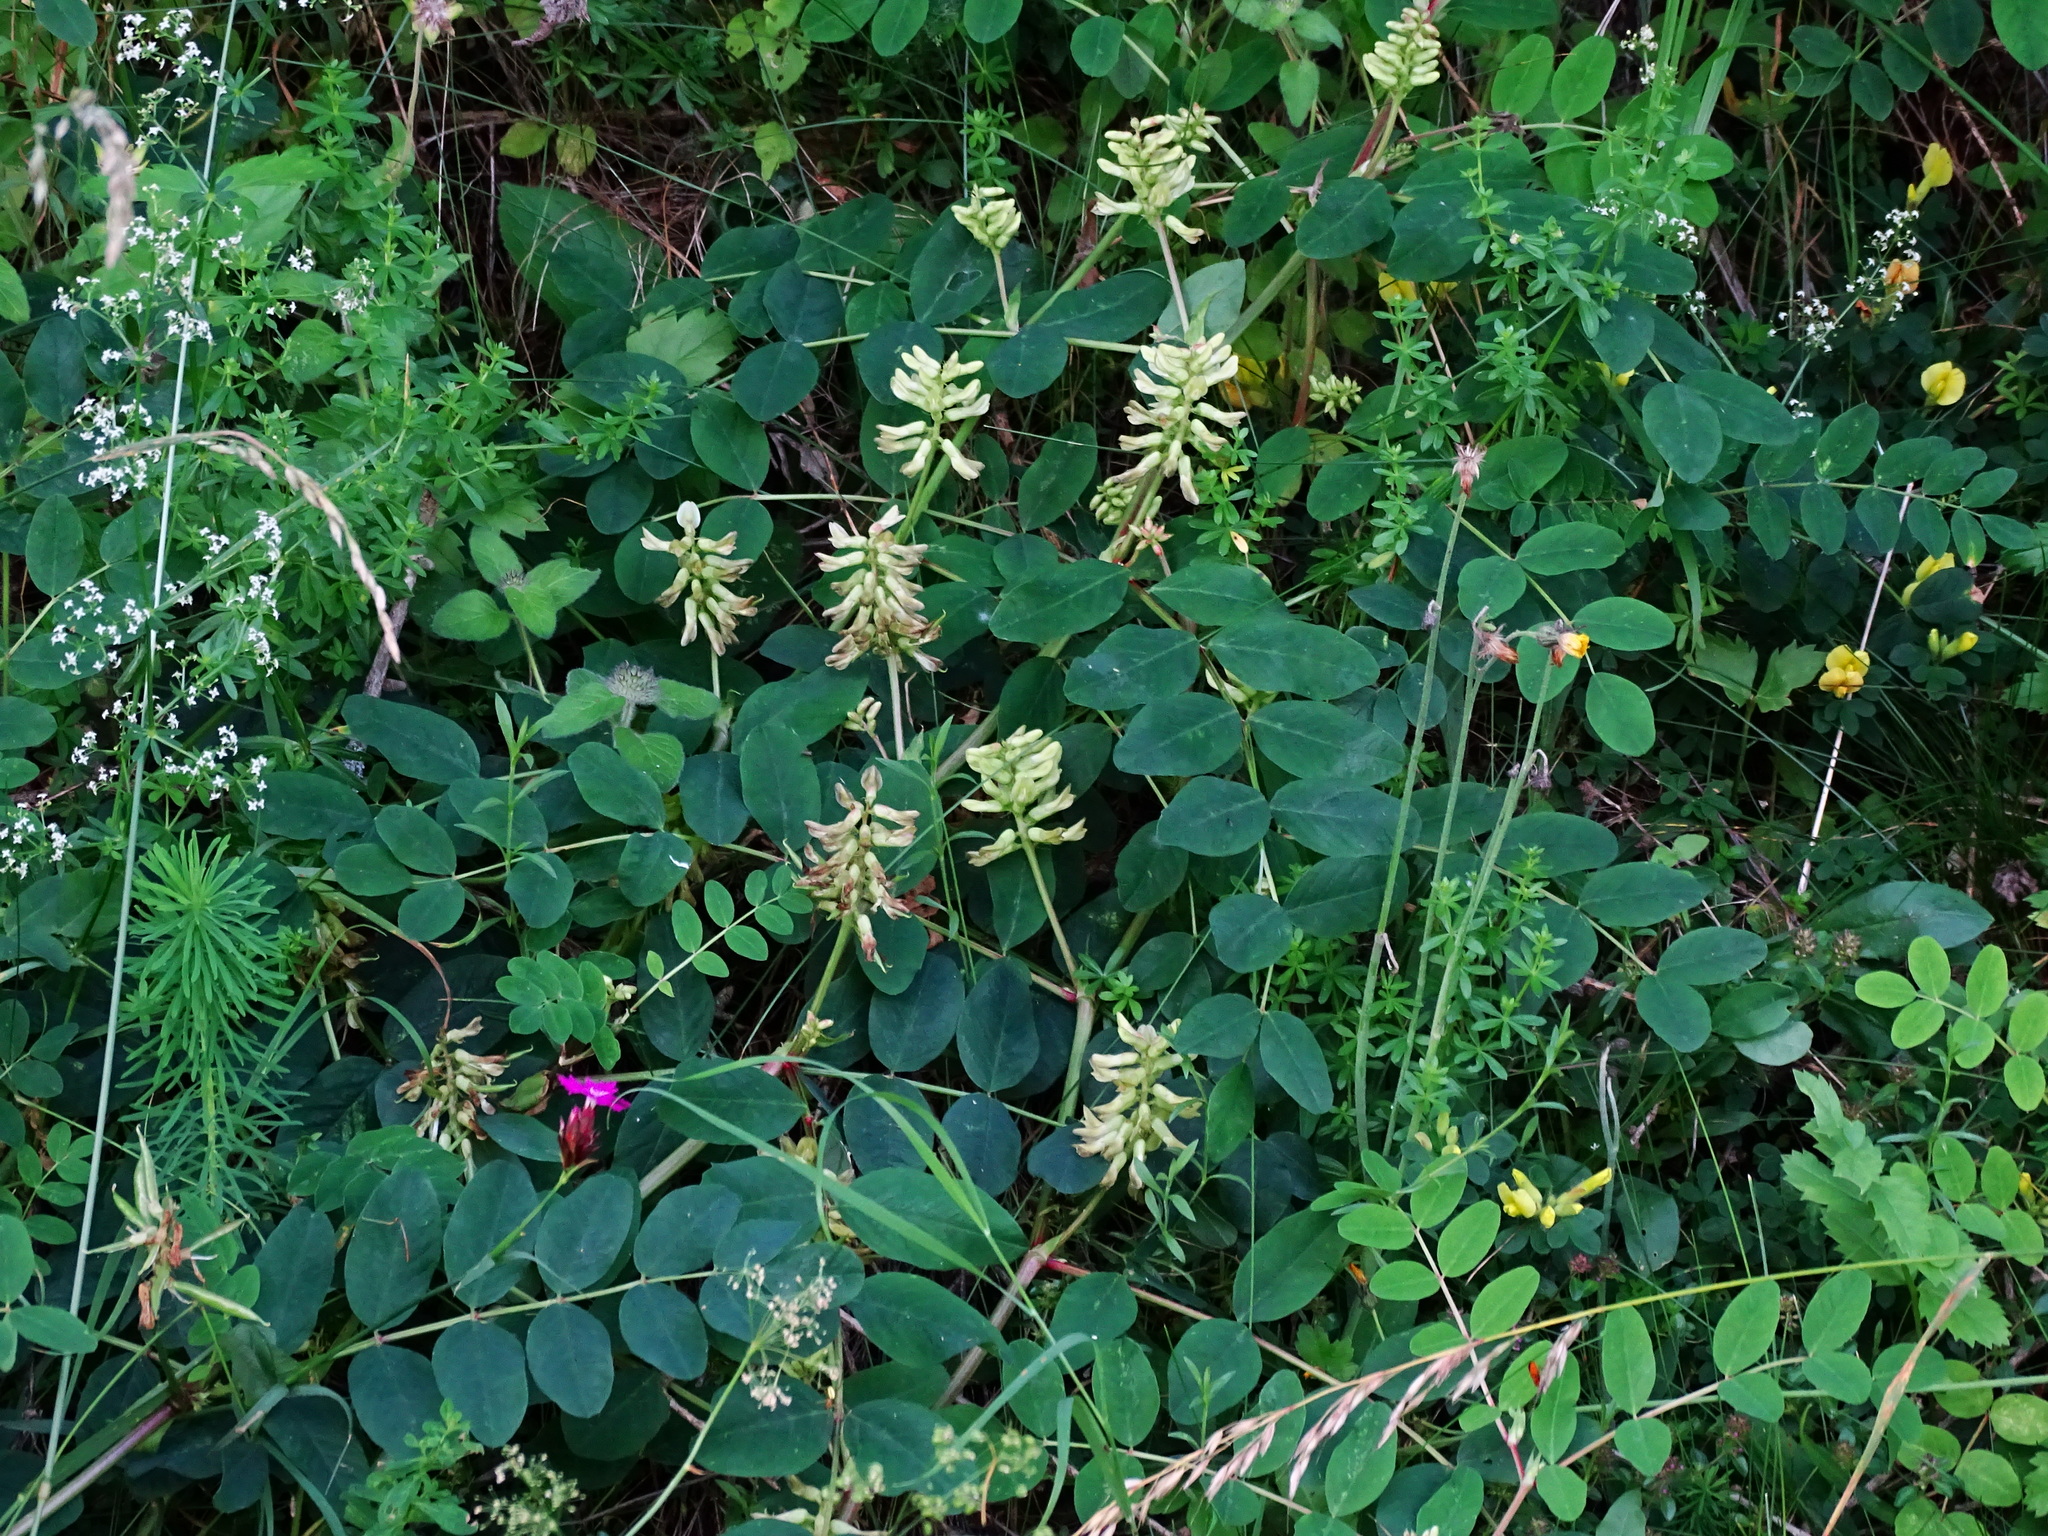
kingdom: Plantae
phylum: Tracheophyta
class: Magnoliopsida
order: Fabales
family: Fabaceae
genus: Astragalus
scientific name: Astragalus glycyphyllos
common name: Wild liquorice
